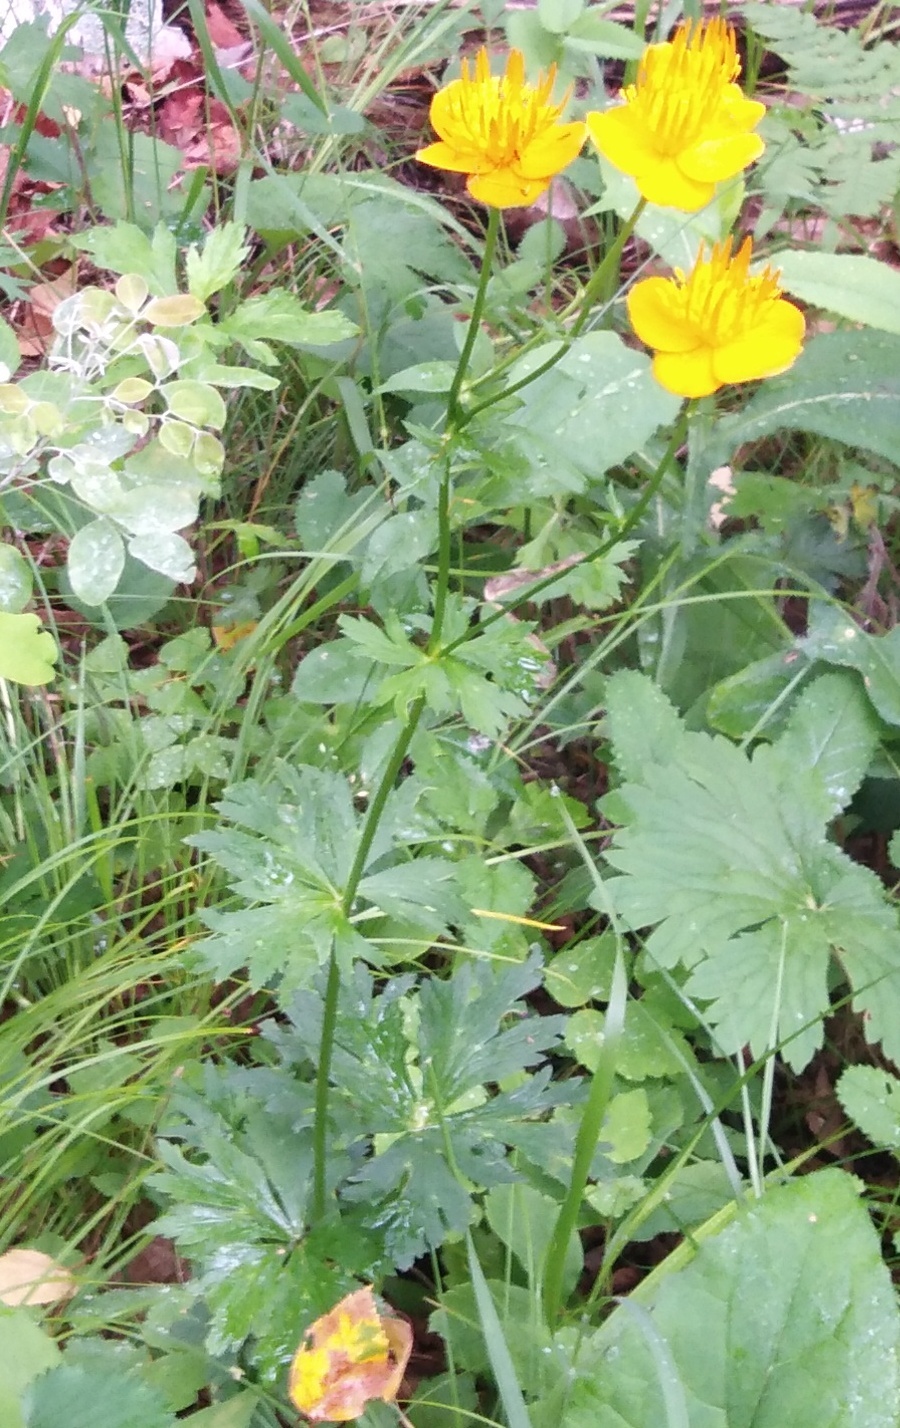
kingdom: Plantae
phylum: Tracheophyta
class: Magnoliopsida
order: Ranunculales
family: Ranunculaceae
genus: Trollius
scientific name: Trollius chinensis
